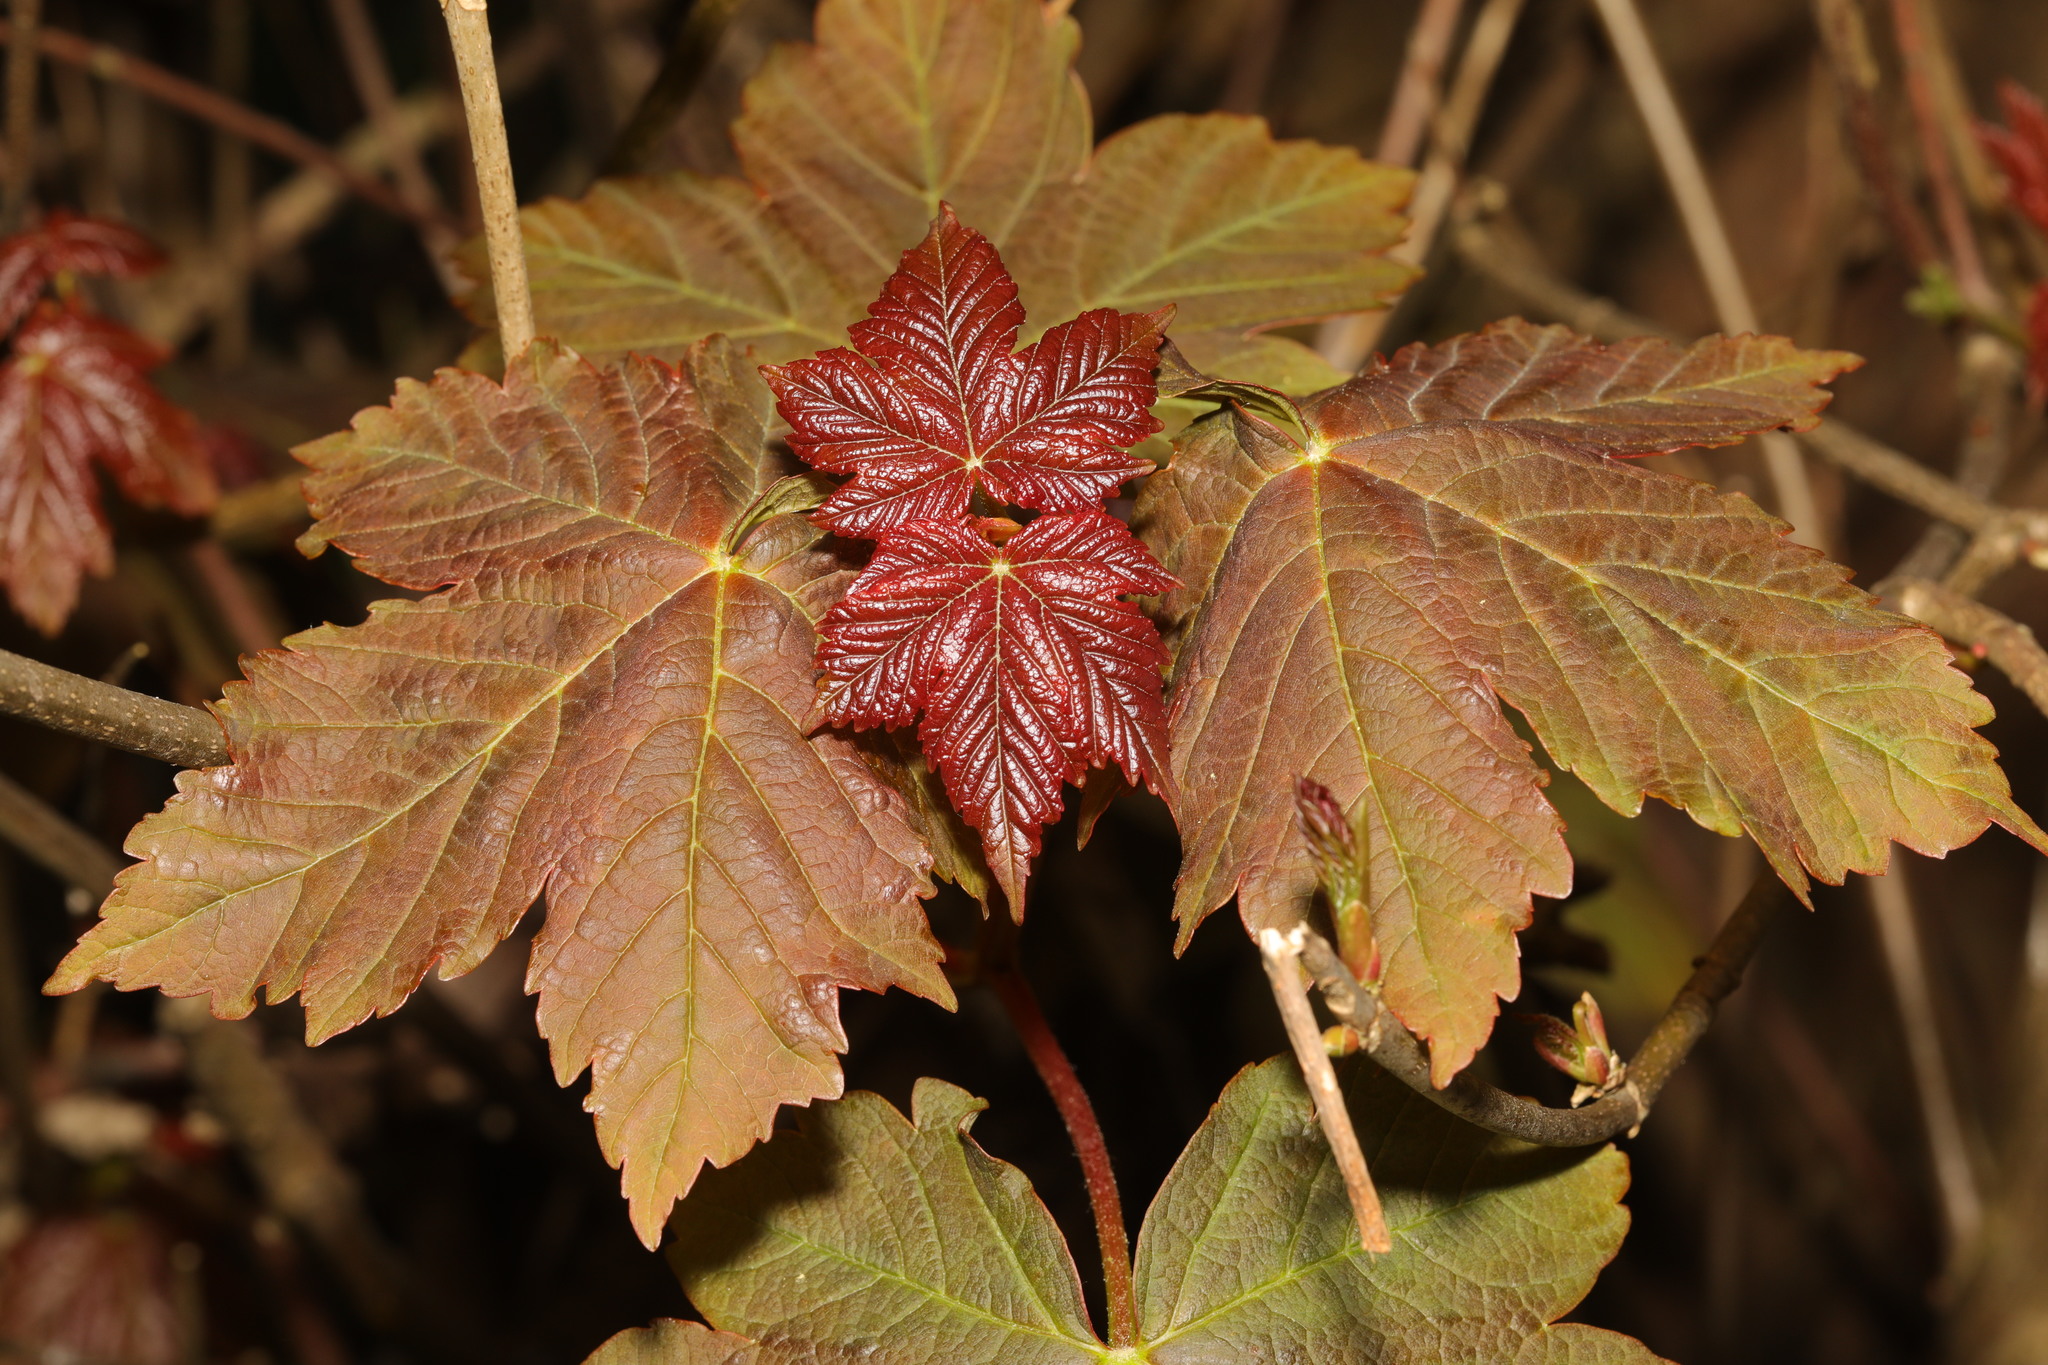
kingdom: Plantae
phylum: Tracheophyta
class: Magnoliopsida
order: Sapindales
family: Sapindaceae
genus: Acer
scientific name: Acer pseudoplatanus
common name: Sycamore
